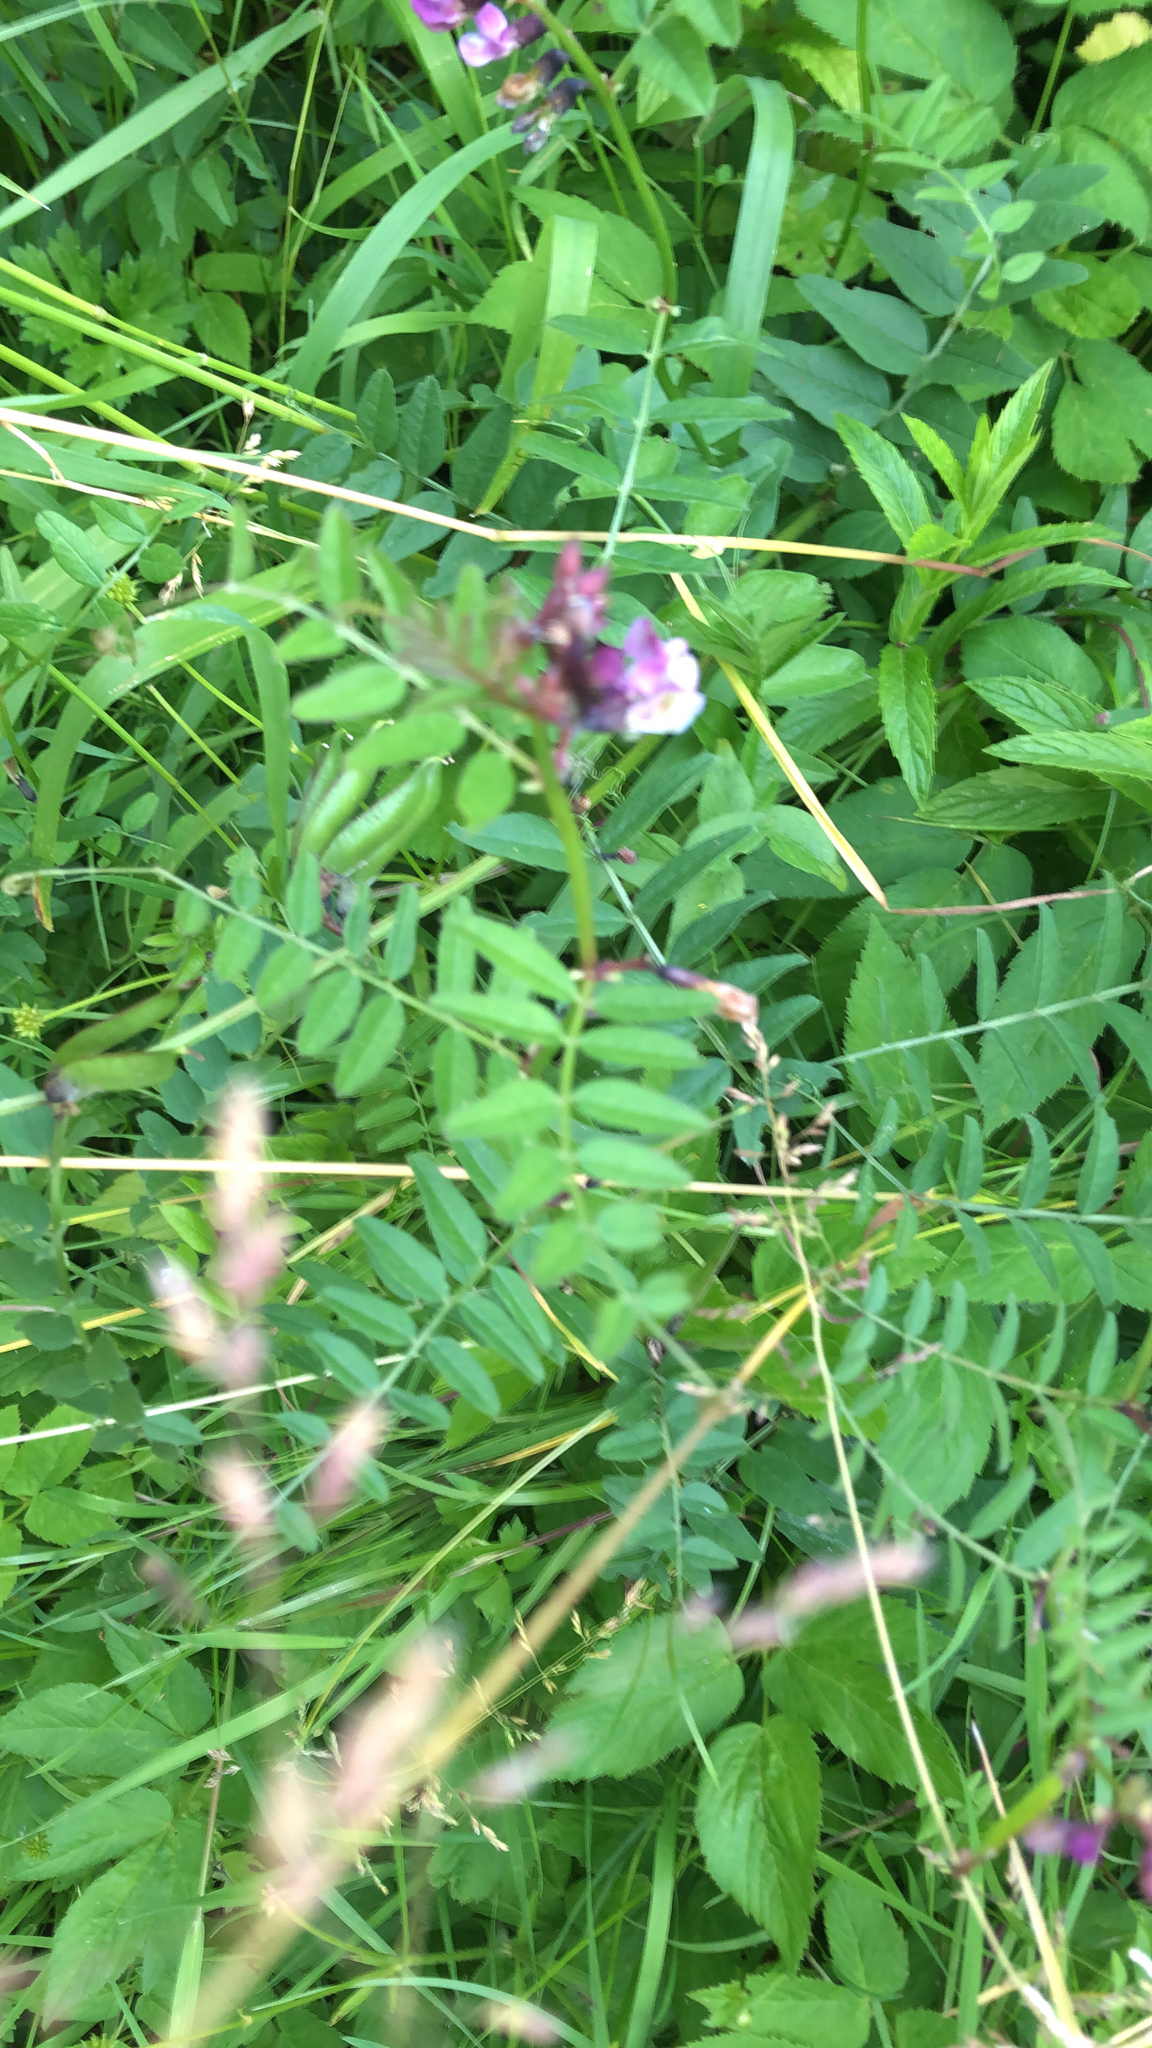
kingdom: Plantae
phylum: Tracheophyta
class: Magnoliopsida
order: Fabales
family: Fabaceae
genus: Vicia
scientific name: Vicia sepium
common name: Bush vetch
